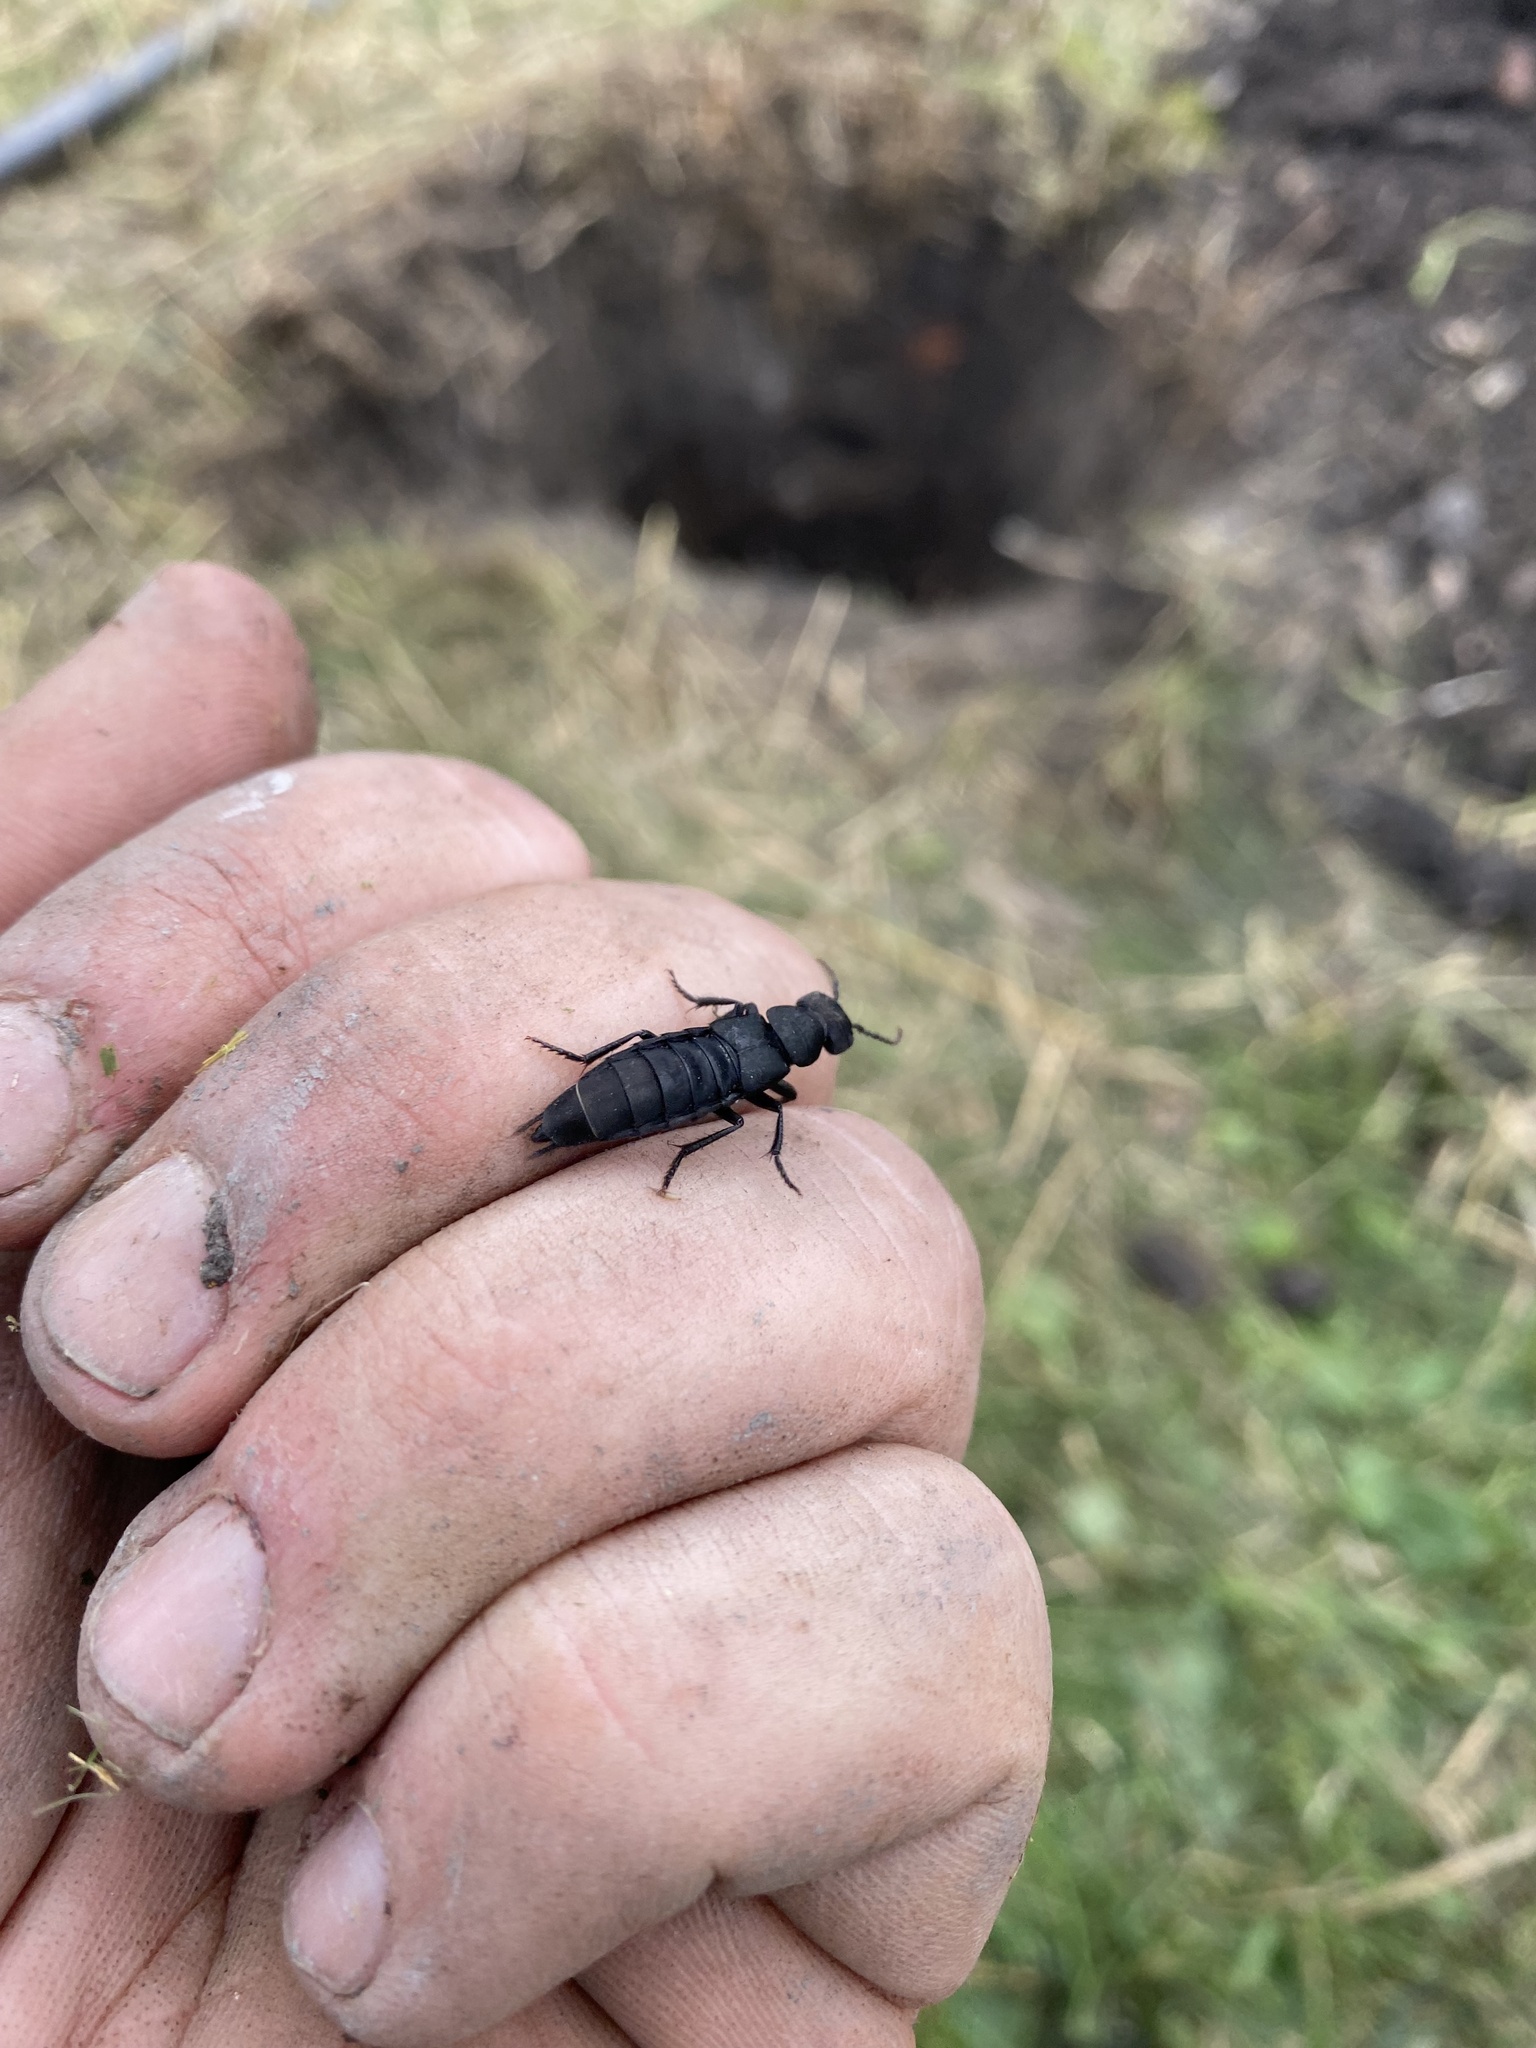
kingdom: Animalia
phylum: Arthropoda
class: Insecta
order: Coleoptera
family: Staphylinidae
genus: Ocypus
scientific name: Ocypus olens
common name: Devil's coach-horse
